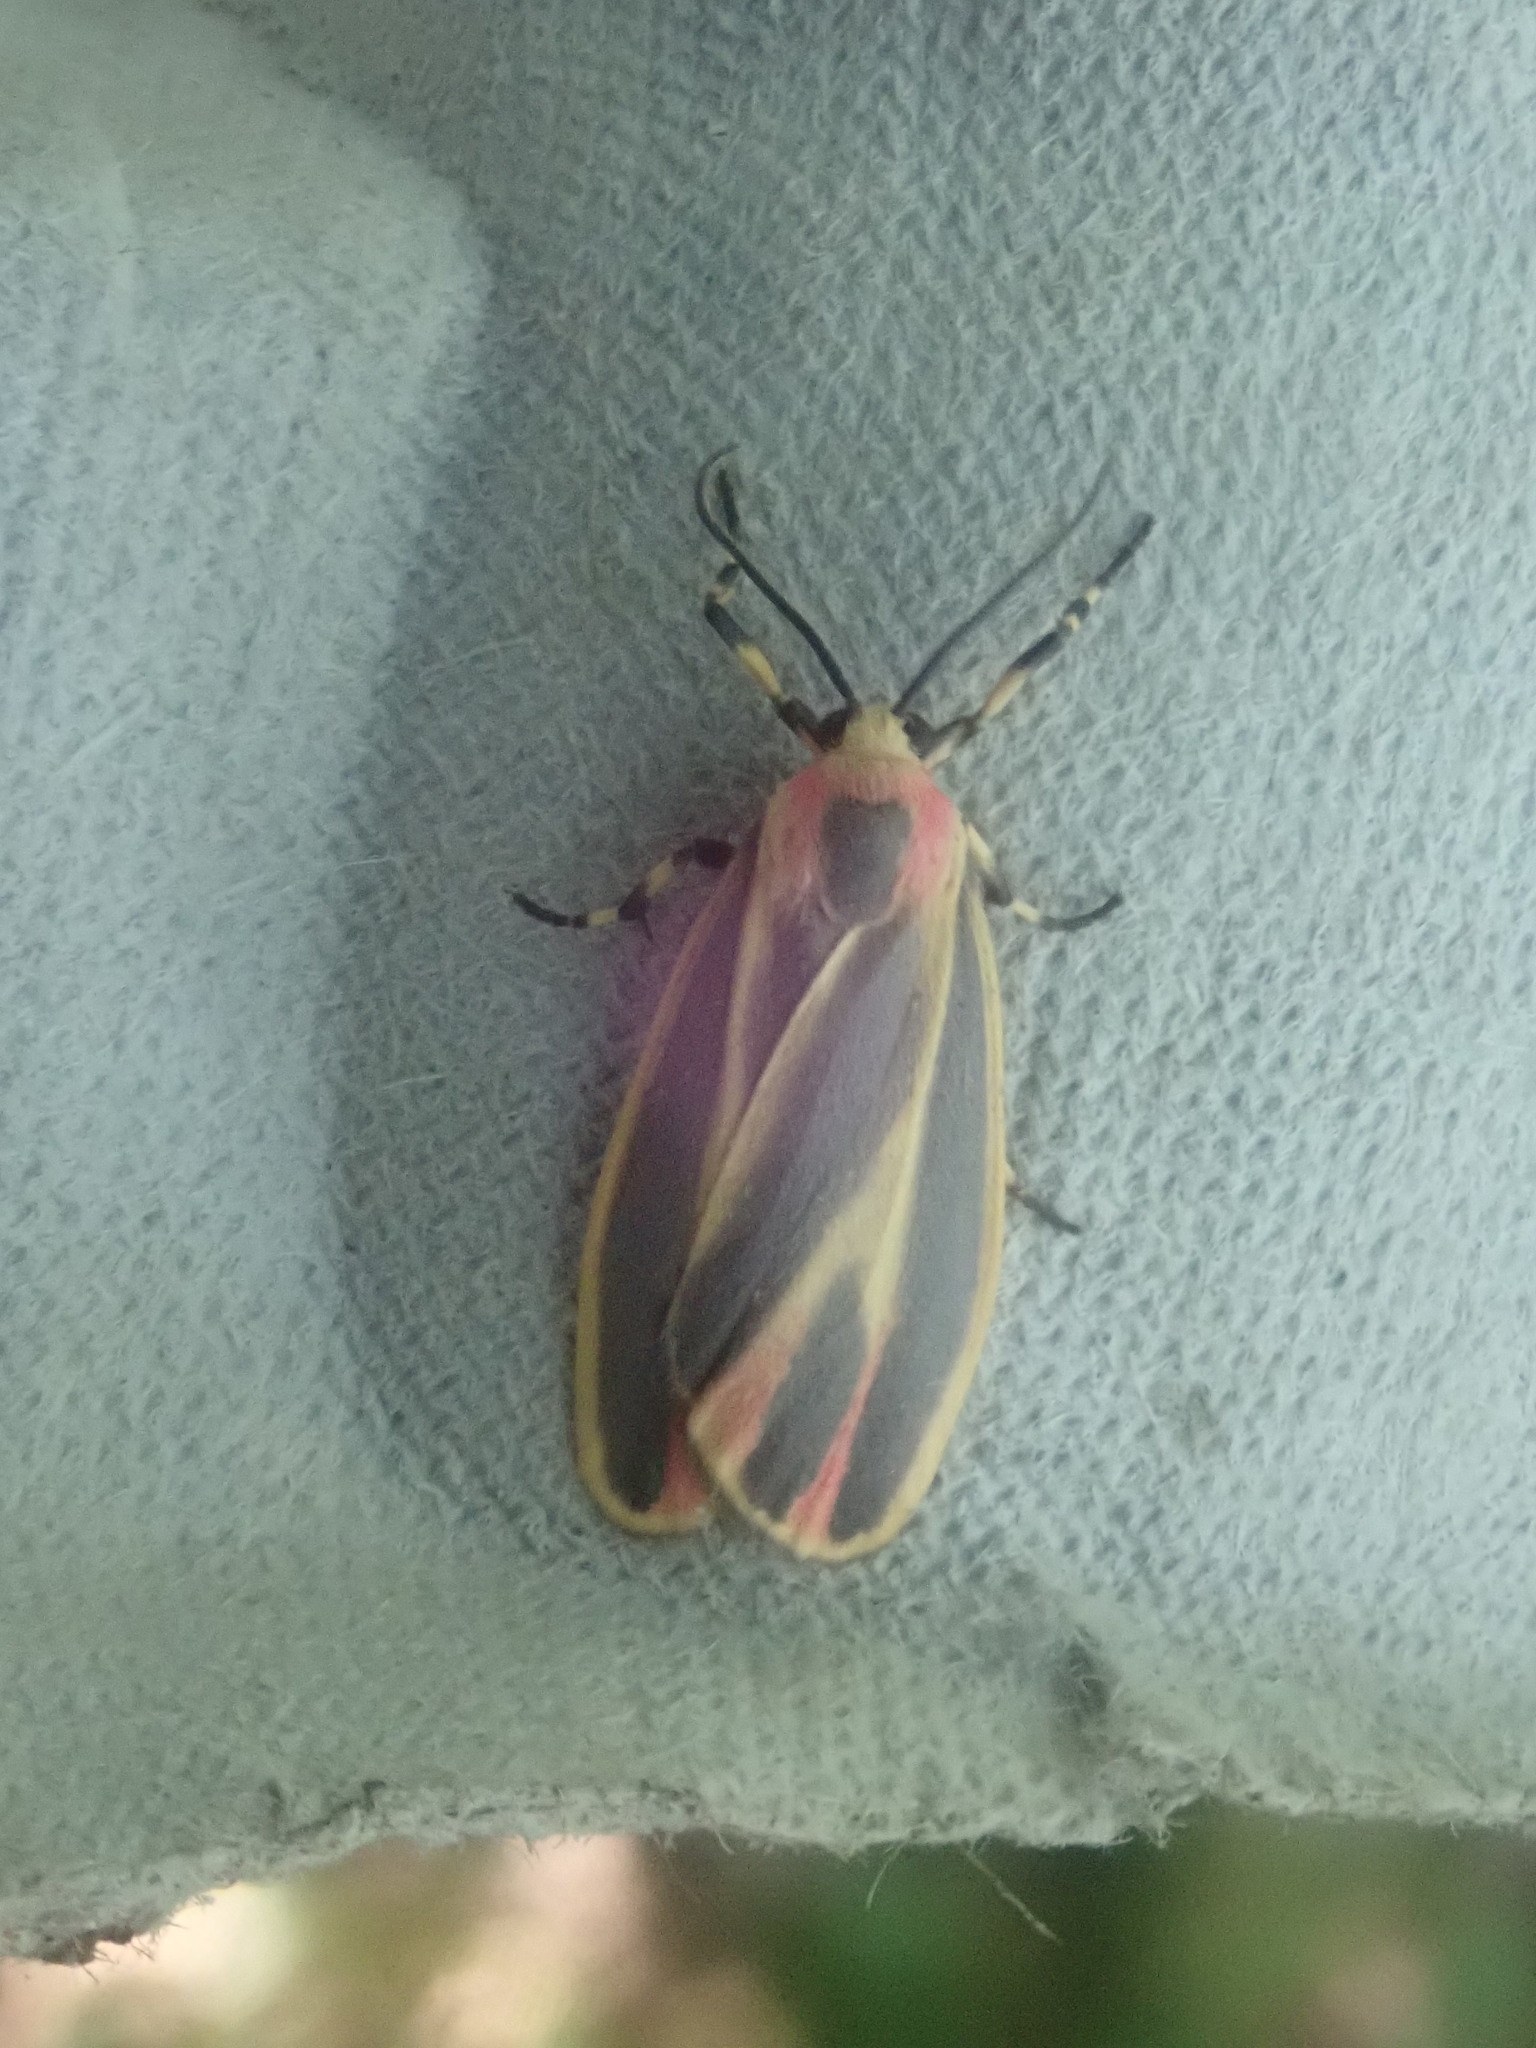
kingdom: Animalia
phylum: Arthropoda
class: Insecta
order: Lepidoptera
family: Erebidae
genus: Hypoprepia
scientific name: Hypoprepia fucosa
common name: Painted lichen moth
